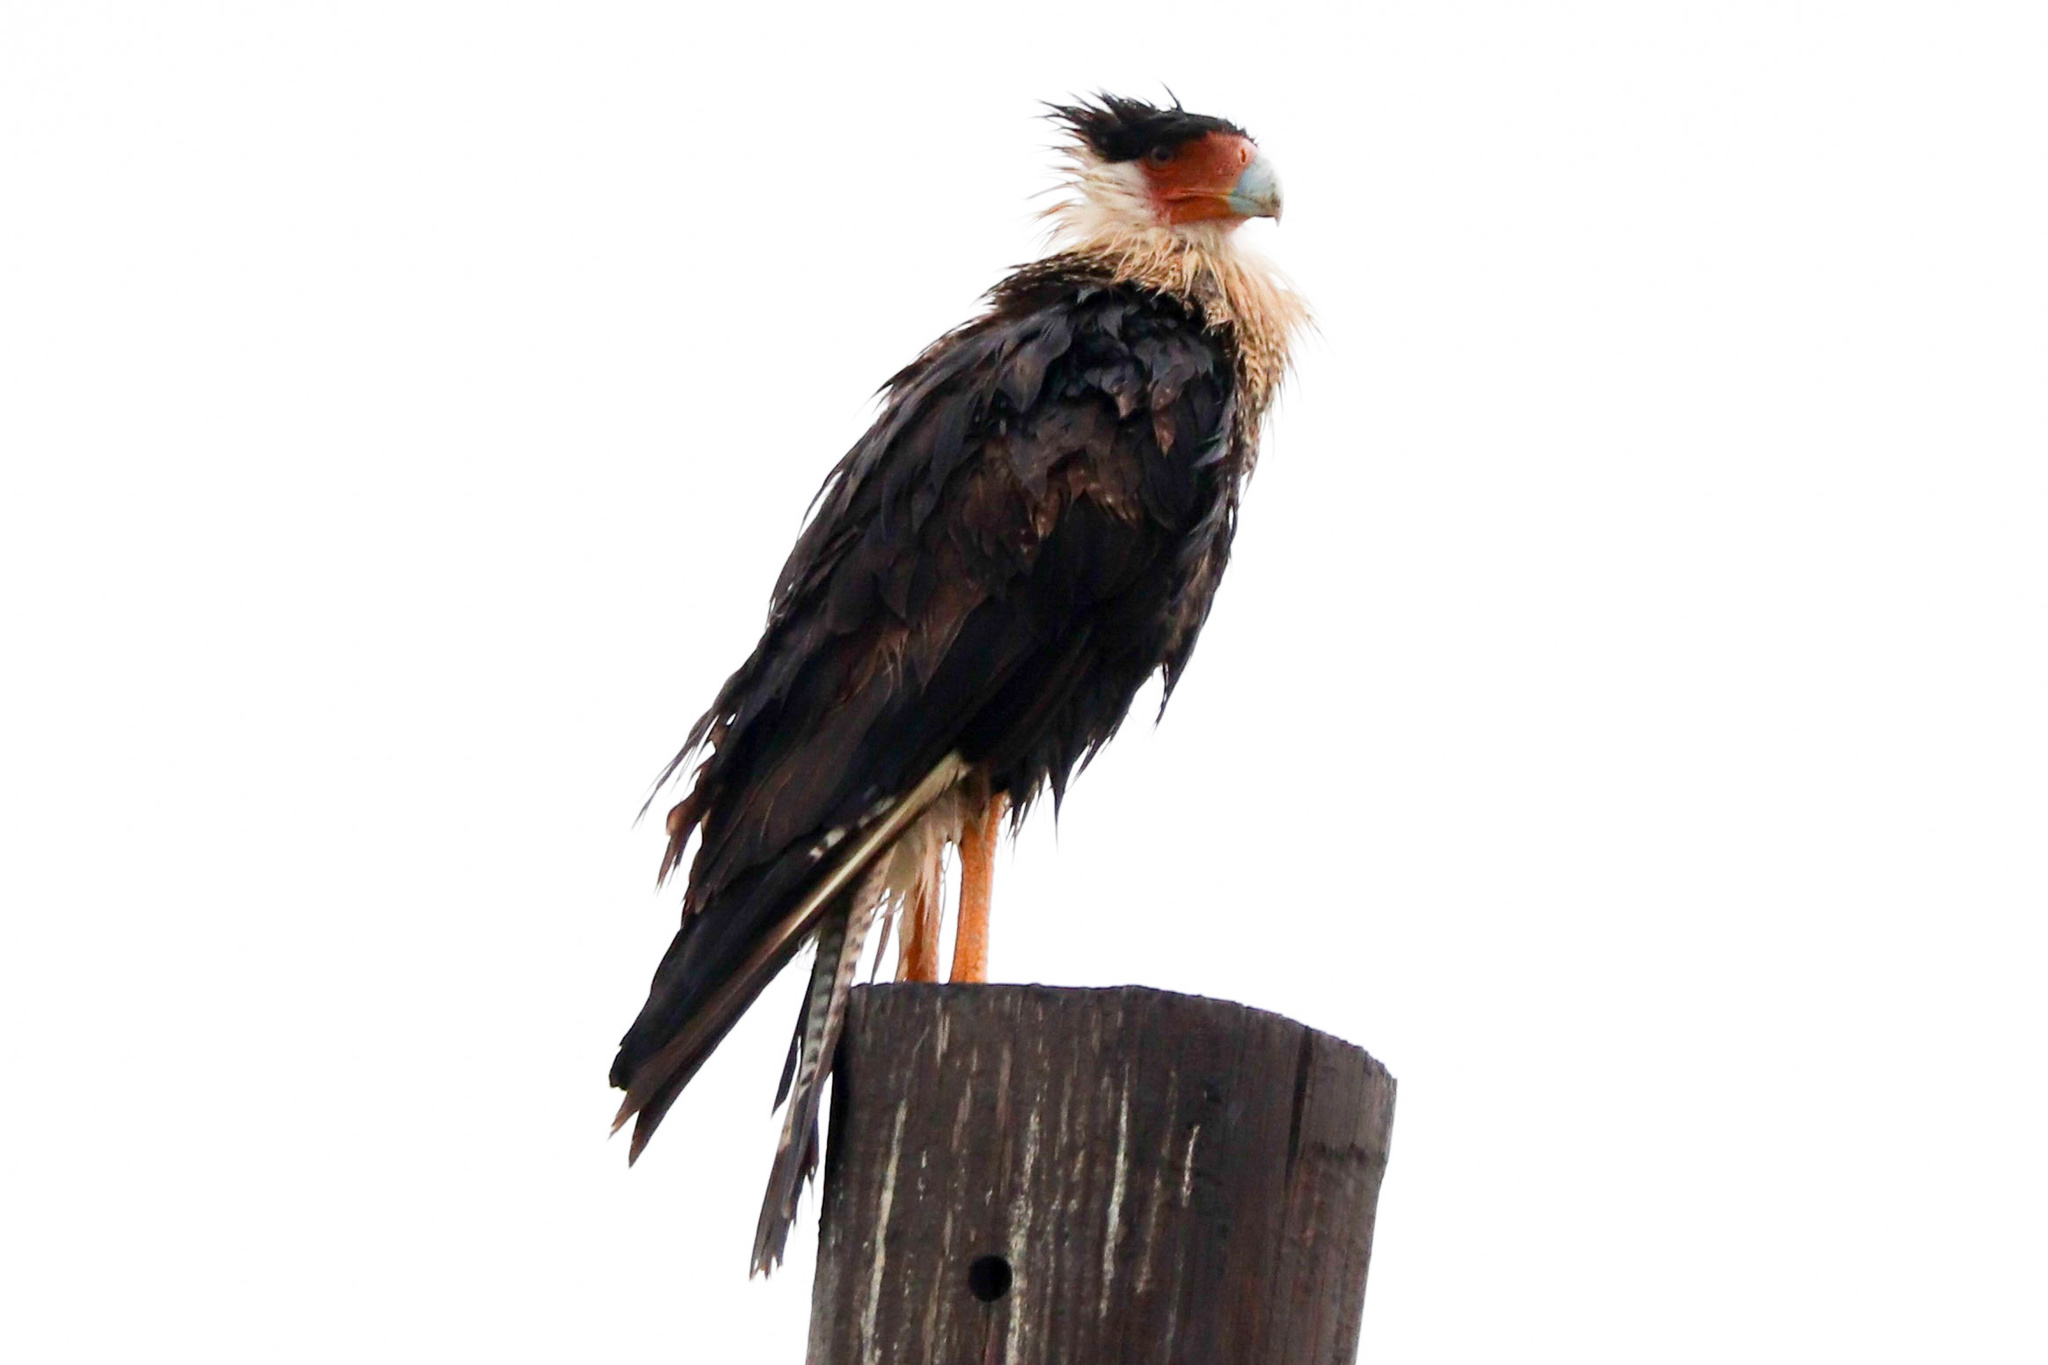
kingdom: Animalia
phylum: Chordata
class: Aves
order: Falconiformes
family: Falconidae
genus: Caracara
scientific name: Caracara plancus
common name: Southern caracara
